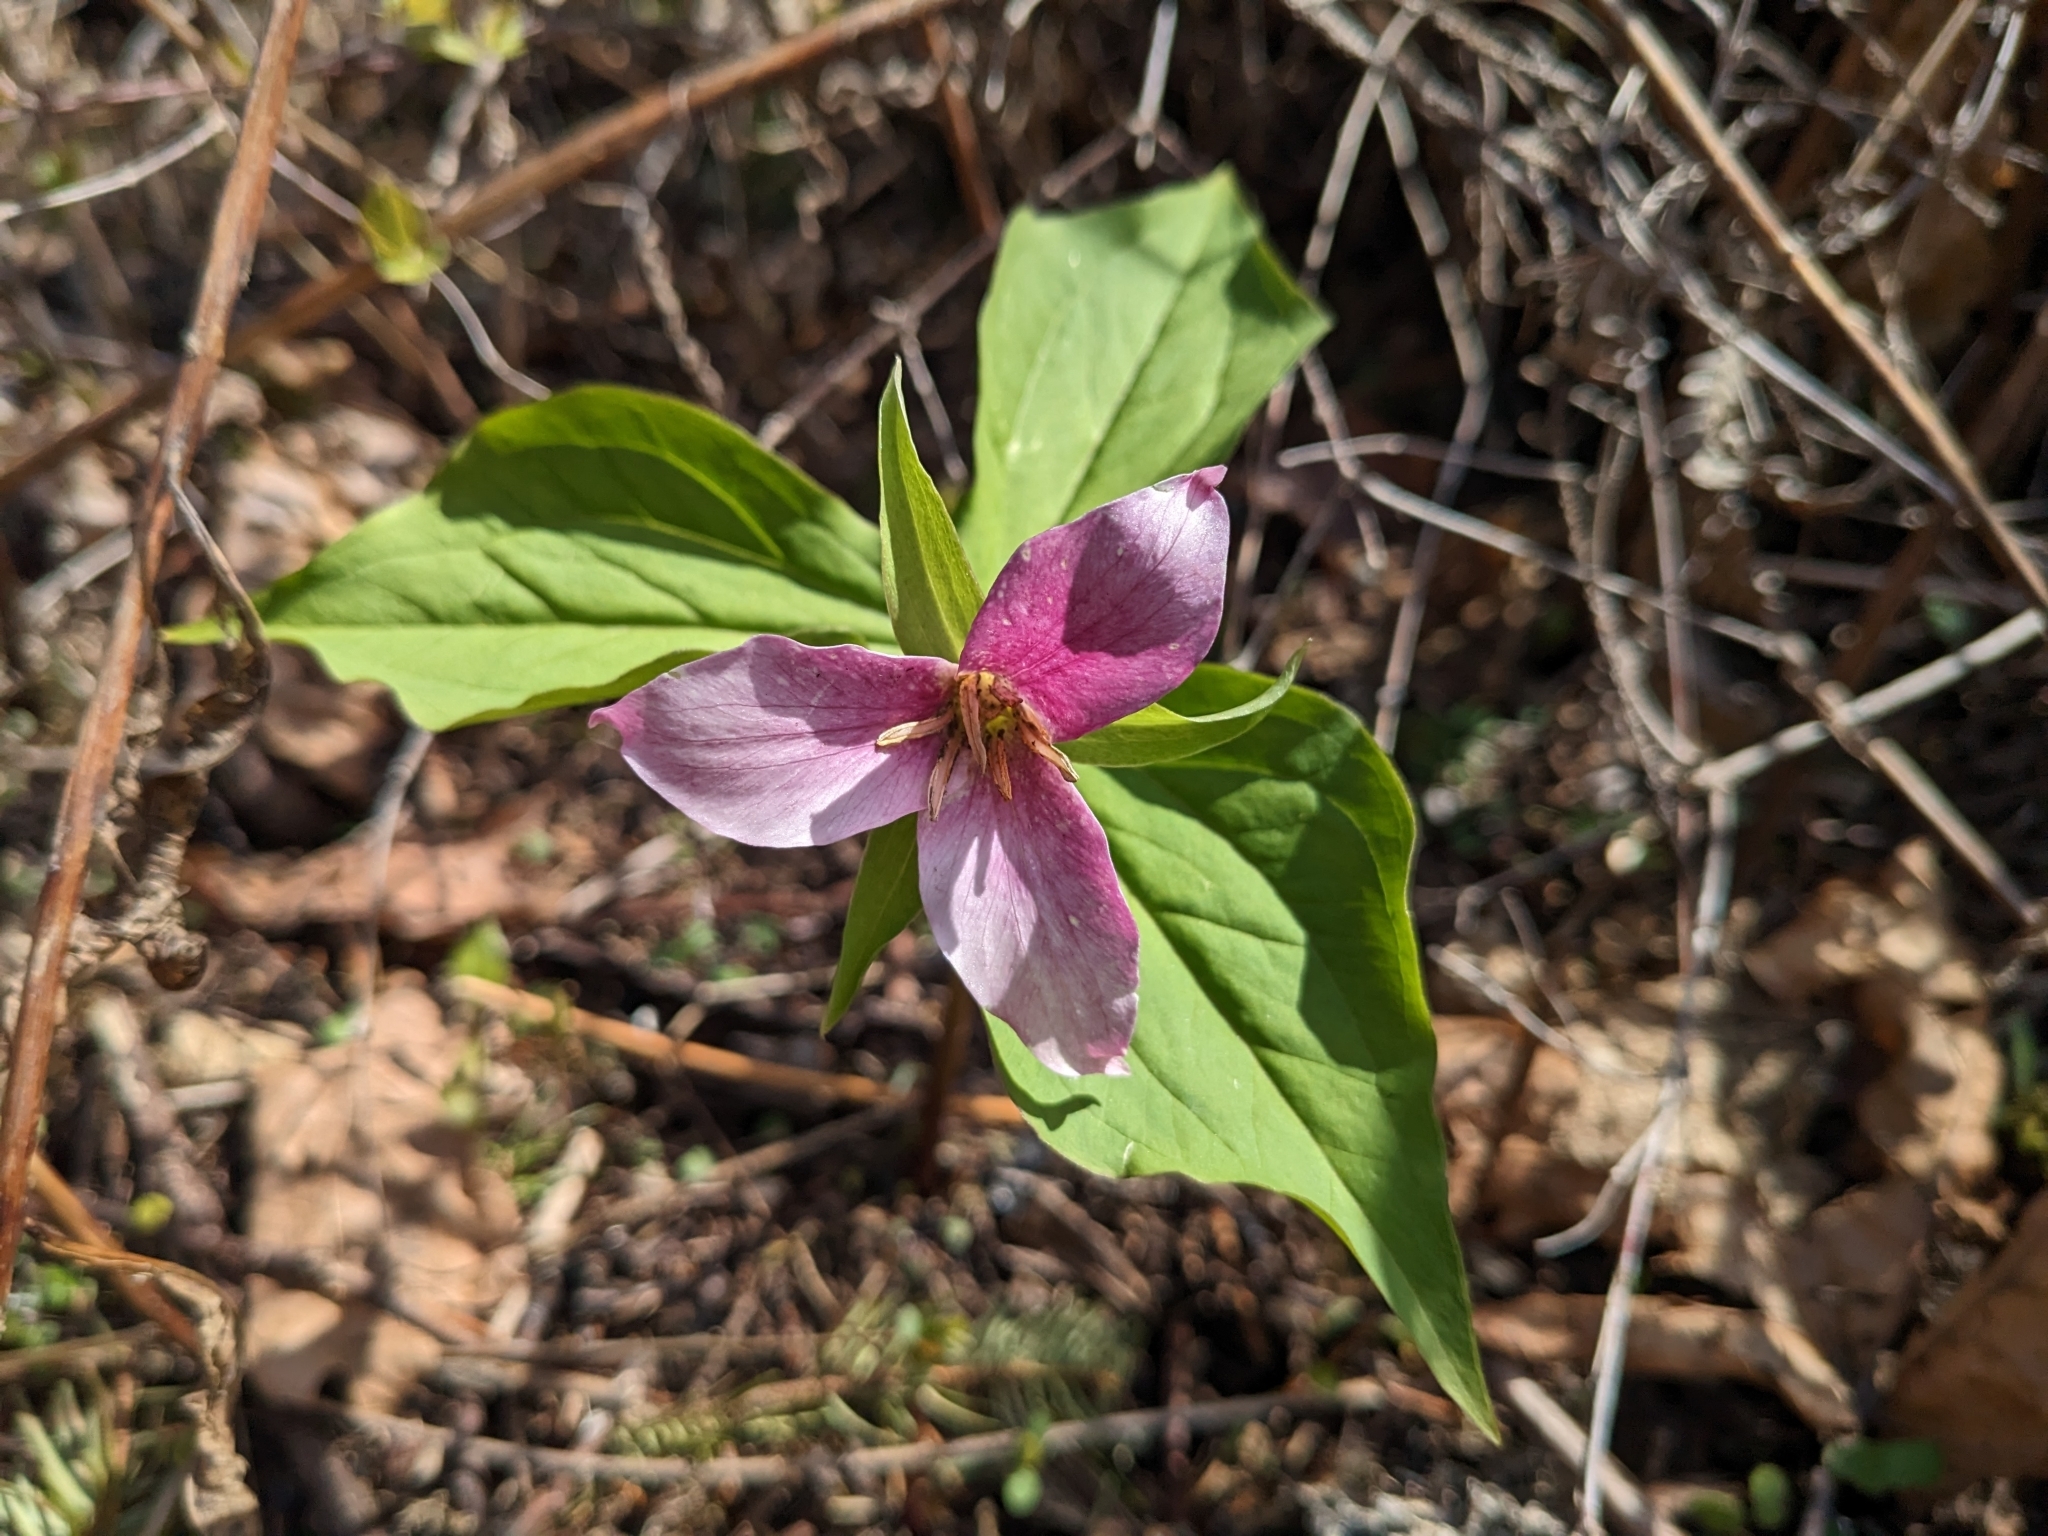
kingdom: Plantae
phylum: Tracheophyta
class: Liliopsida
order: Liliales
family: Melanthiaceae
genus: Trillium
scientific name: Trillium ovatum
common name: Pacific trillium
